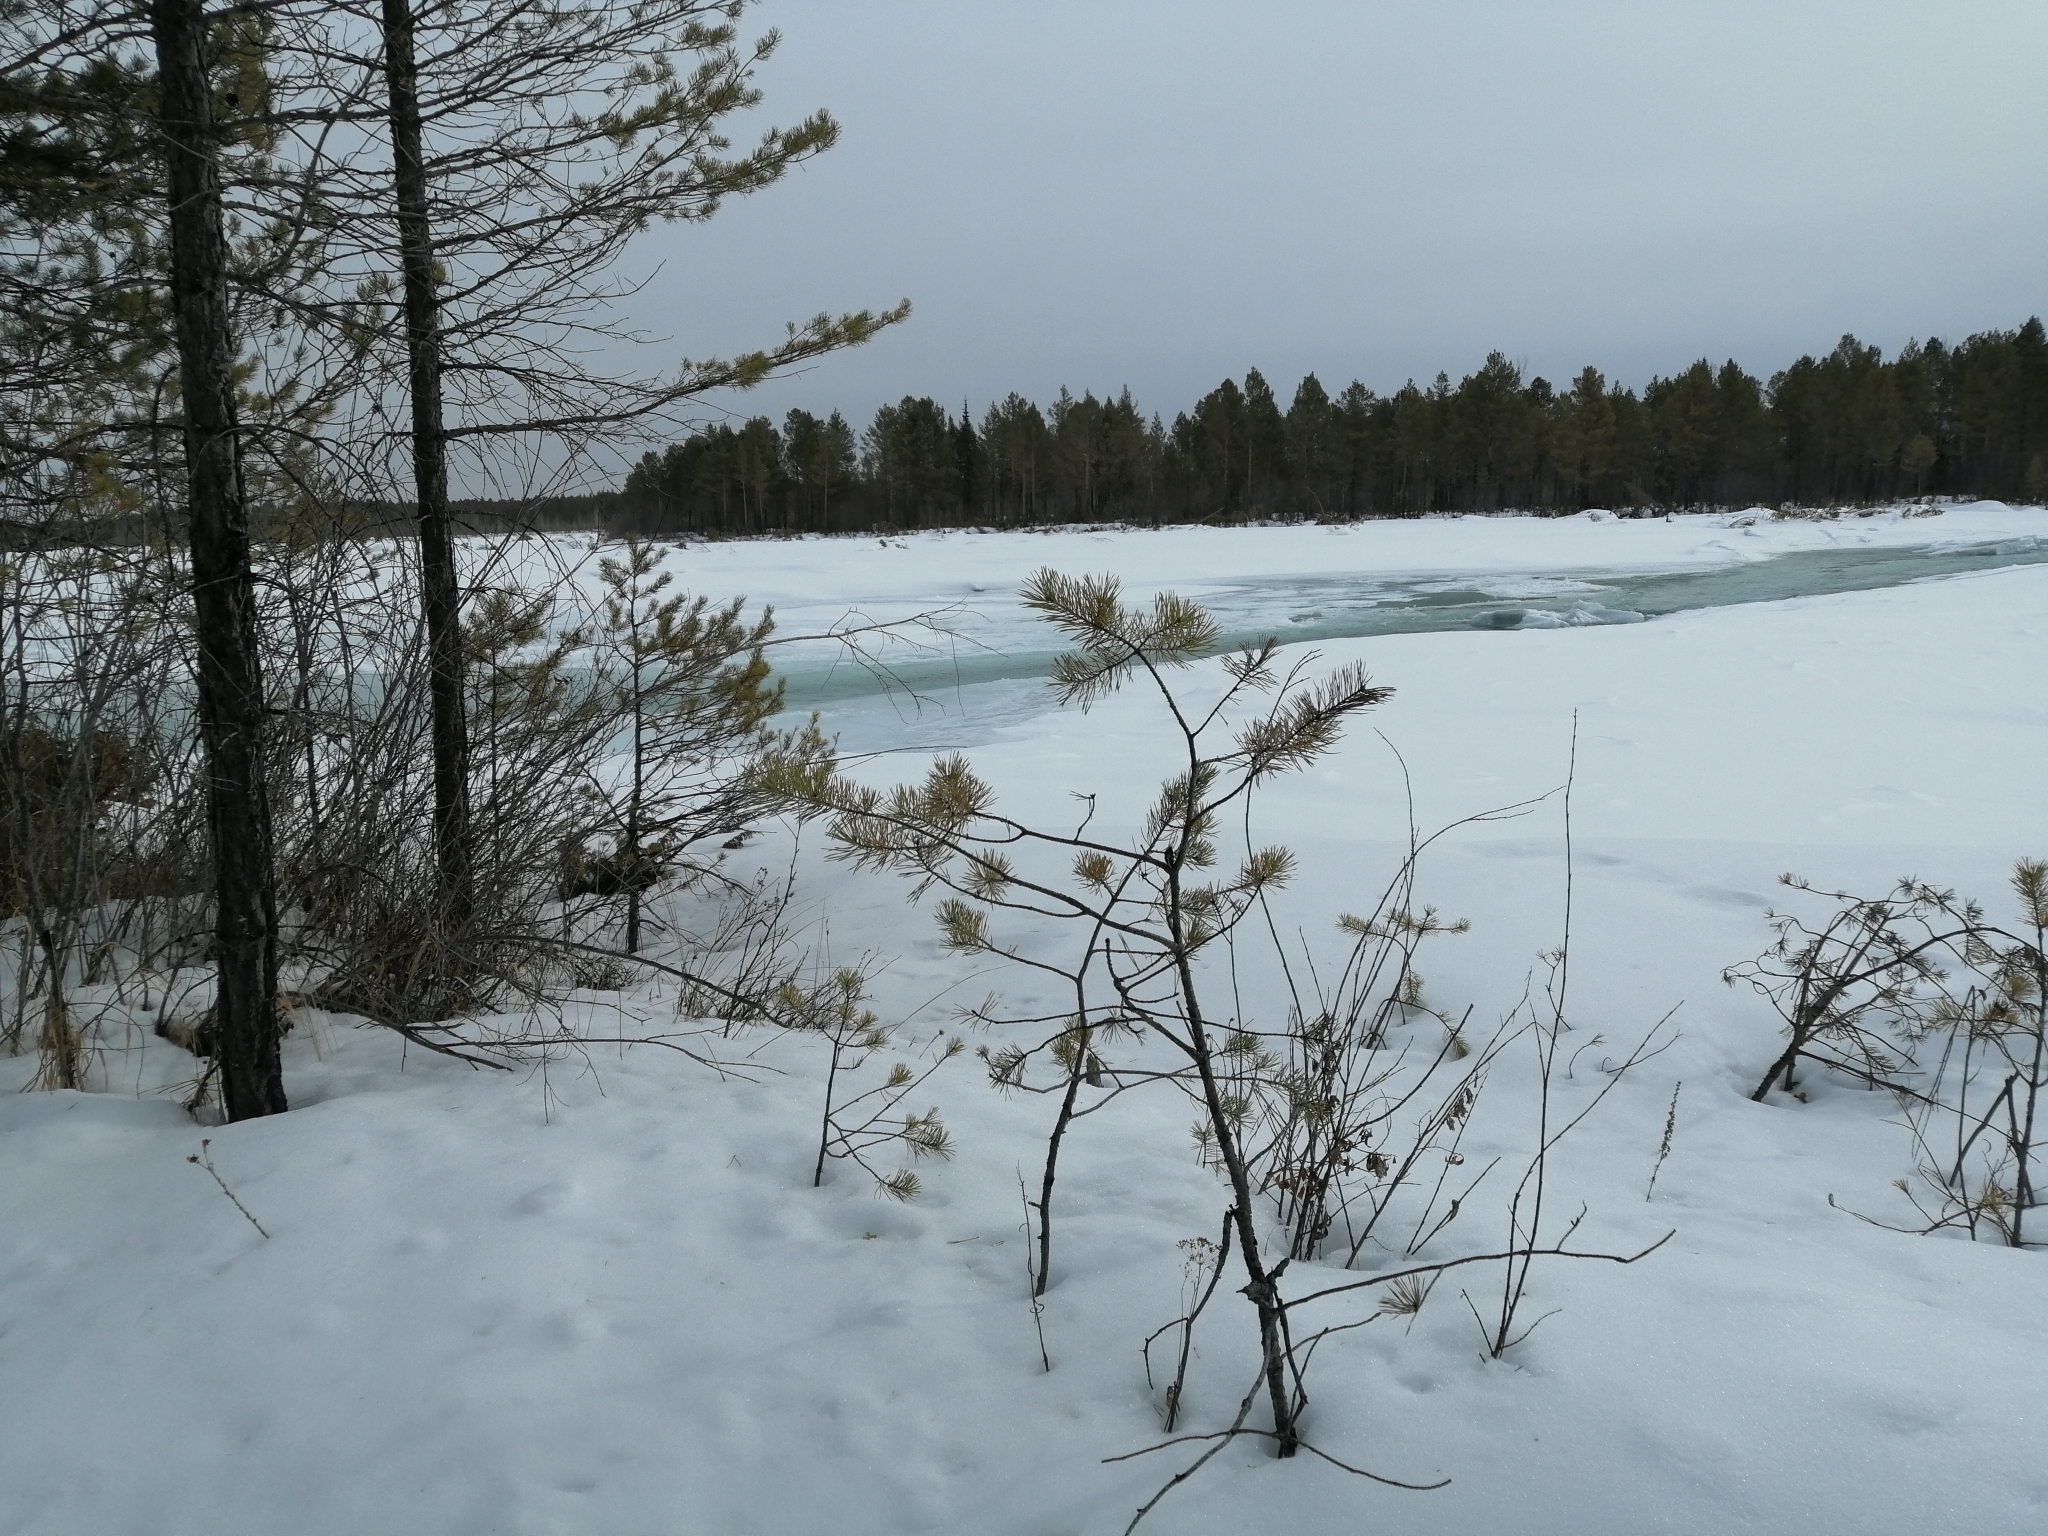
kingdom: Plantae
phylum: Tracheophyta
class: Pinopsida
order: Pinales
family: Pinaceae
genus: Pinus
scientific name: Pinus sylvestris
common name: Scots pine
